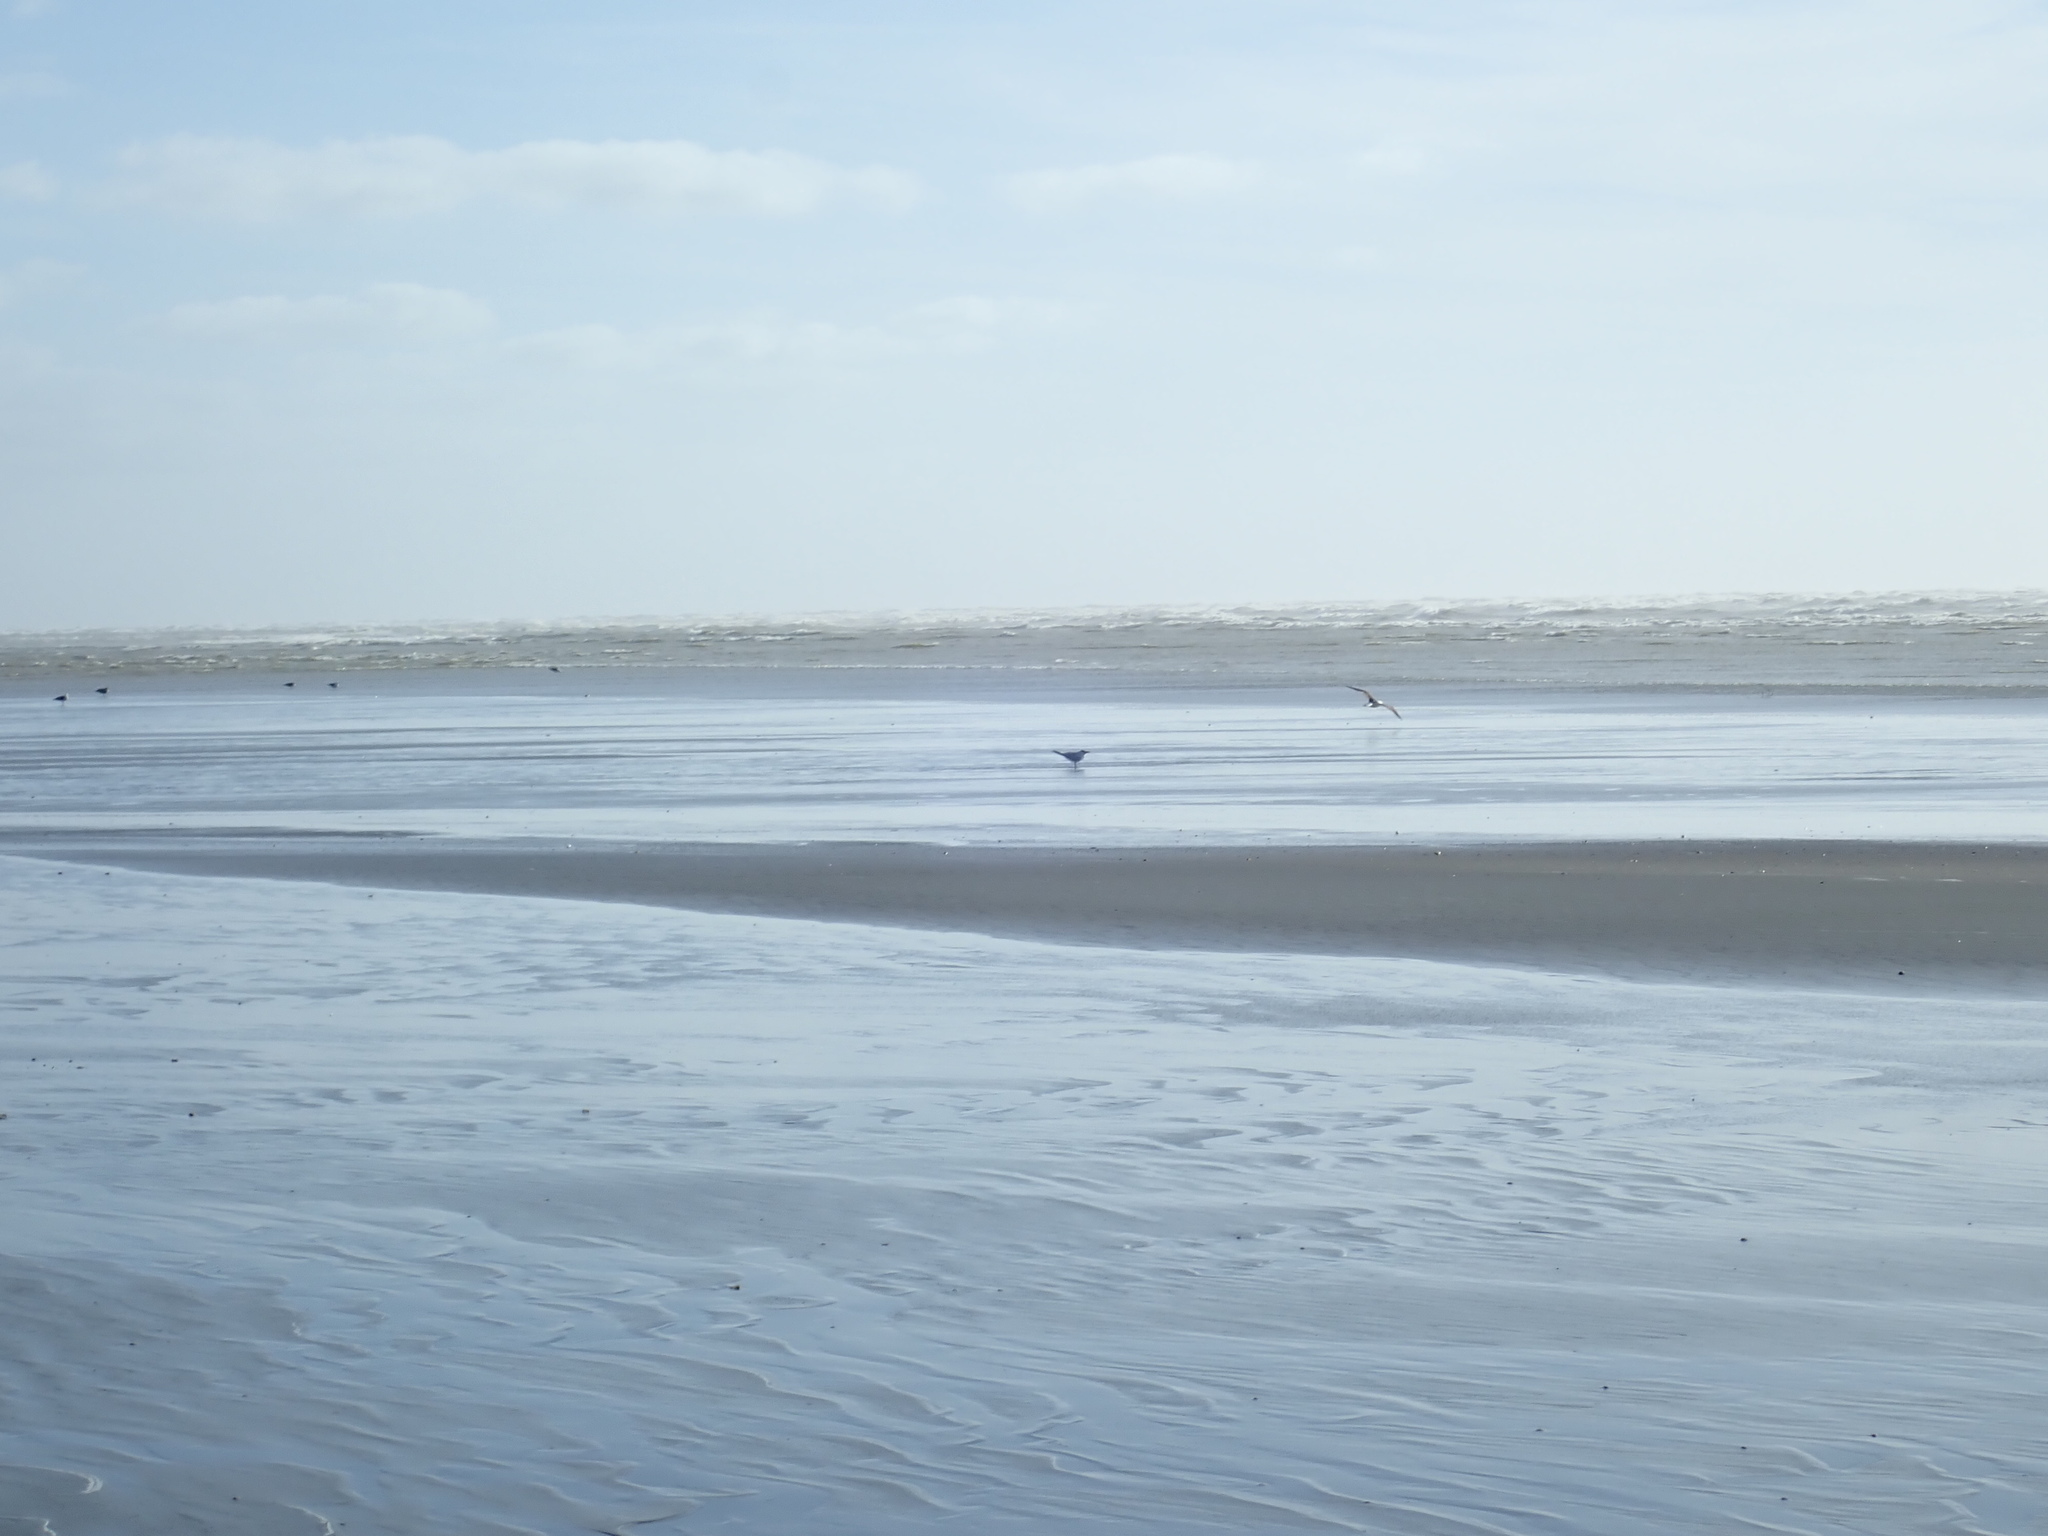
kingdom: Animalia
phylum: Chordata
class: Aves
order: Charadriiformes
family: Laridae
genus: Hydroprogne
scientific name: Hydroprogne caspia
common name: Caspian tern
